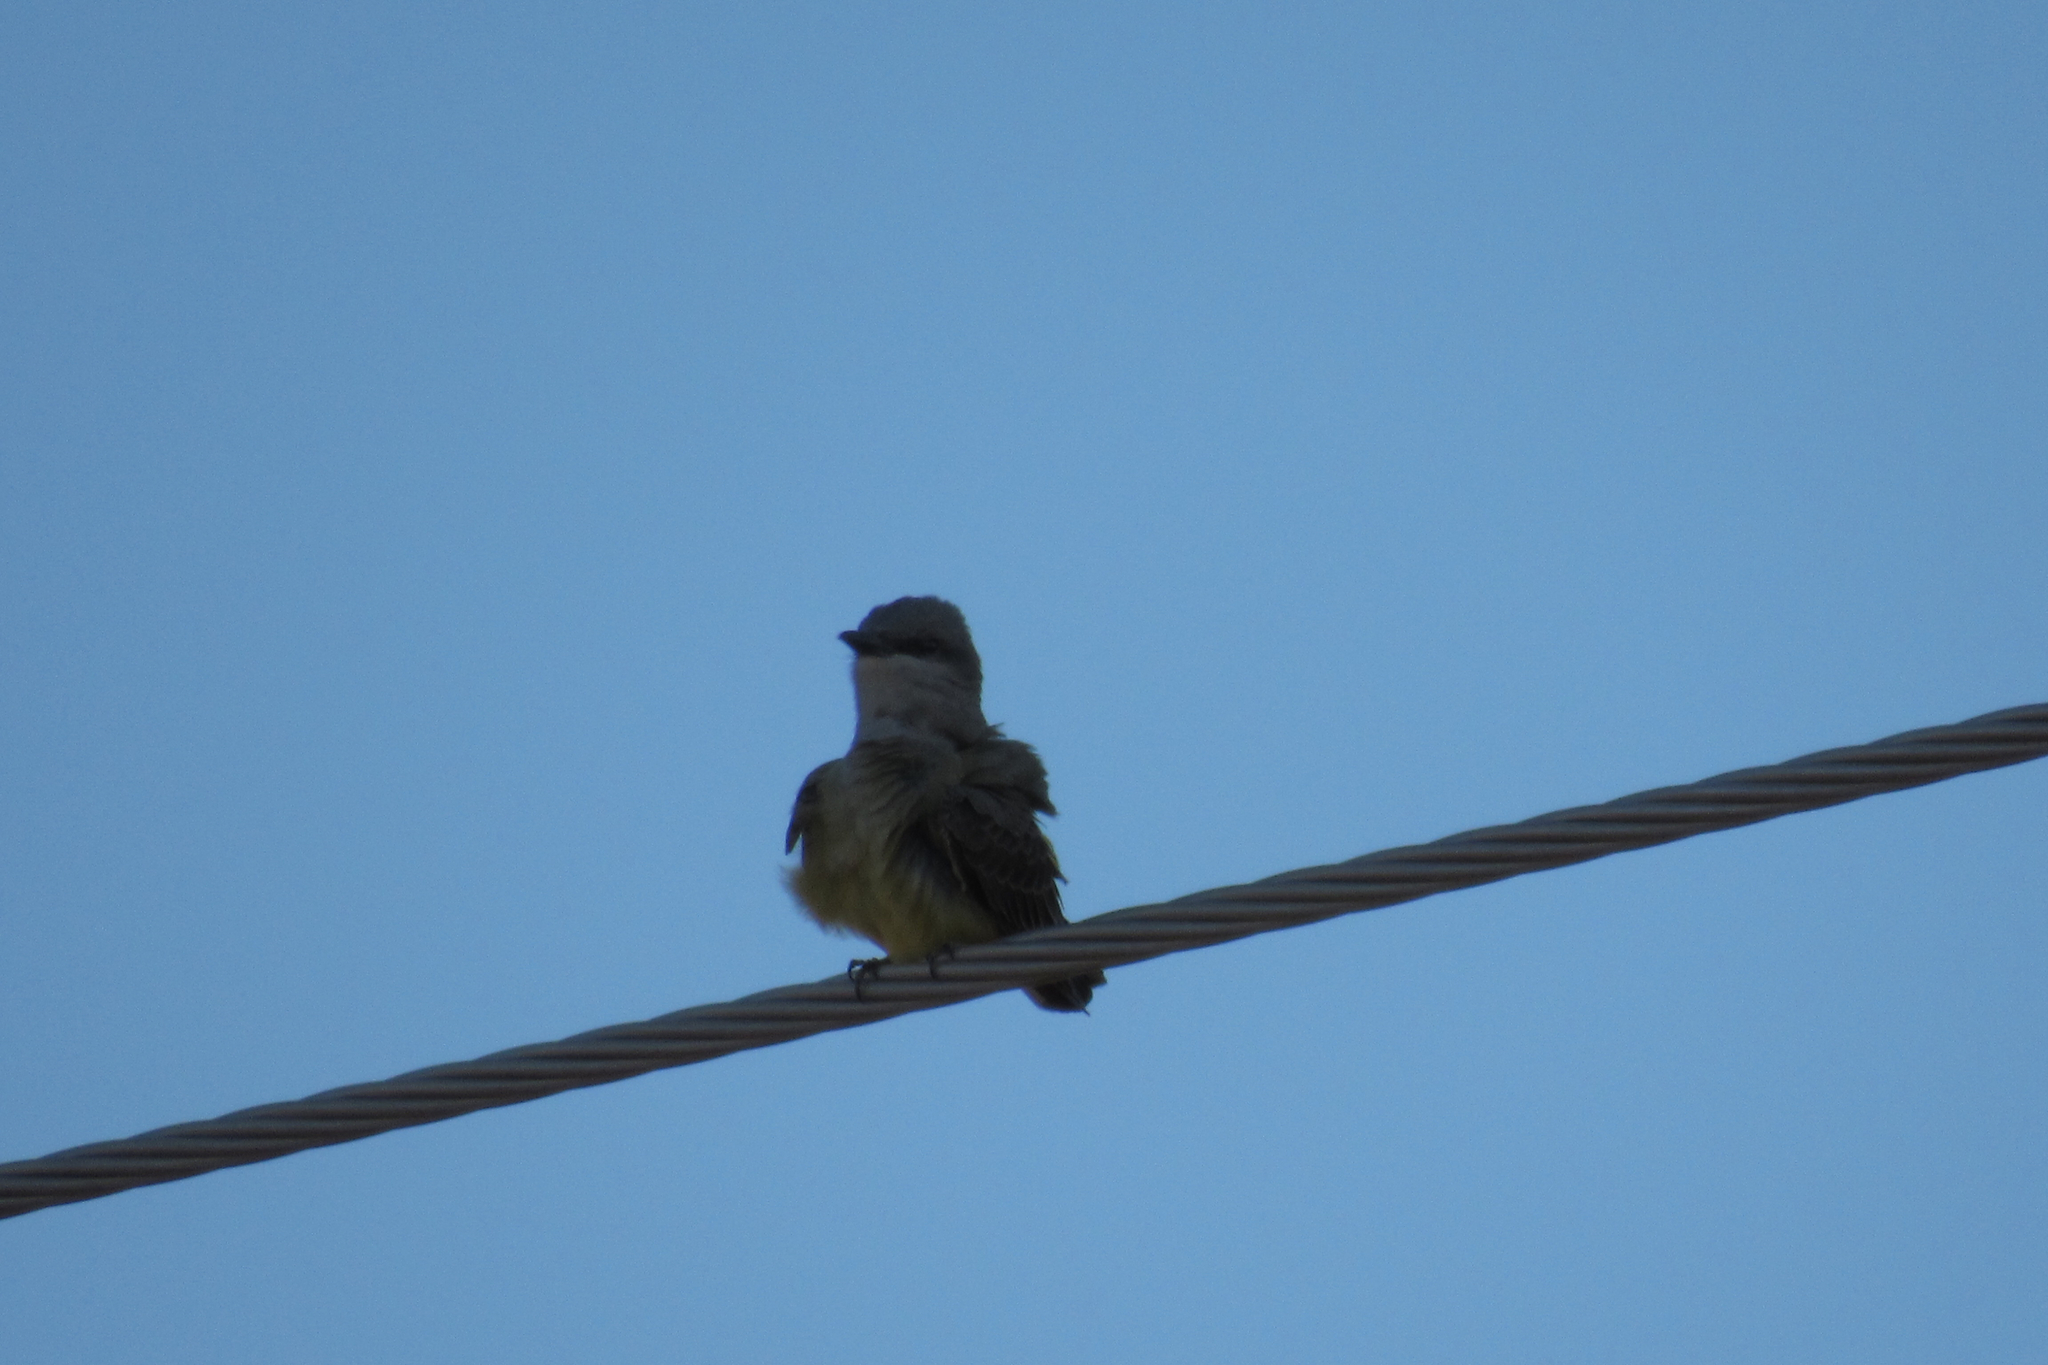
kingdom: Animalia
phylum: Chordata
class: Aves
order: Passeriformes
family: Tyrannidae
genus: Tyrannus
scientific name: Tyrannus verticalis
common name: Western kingbird
